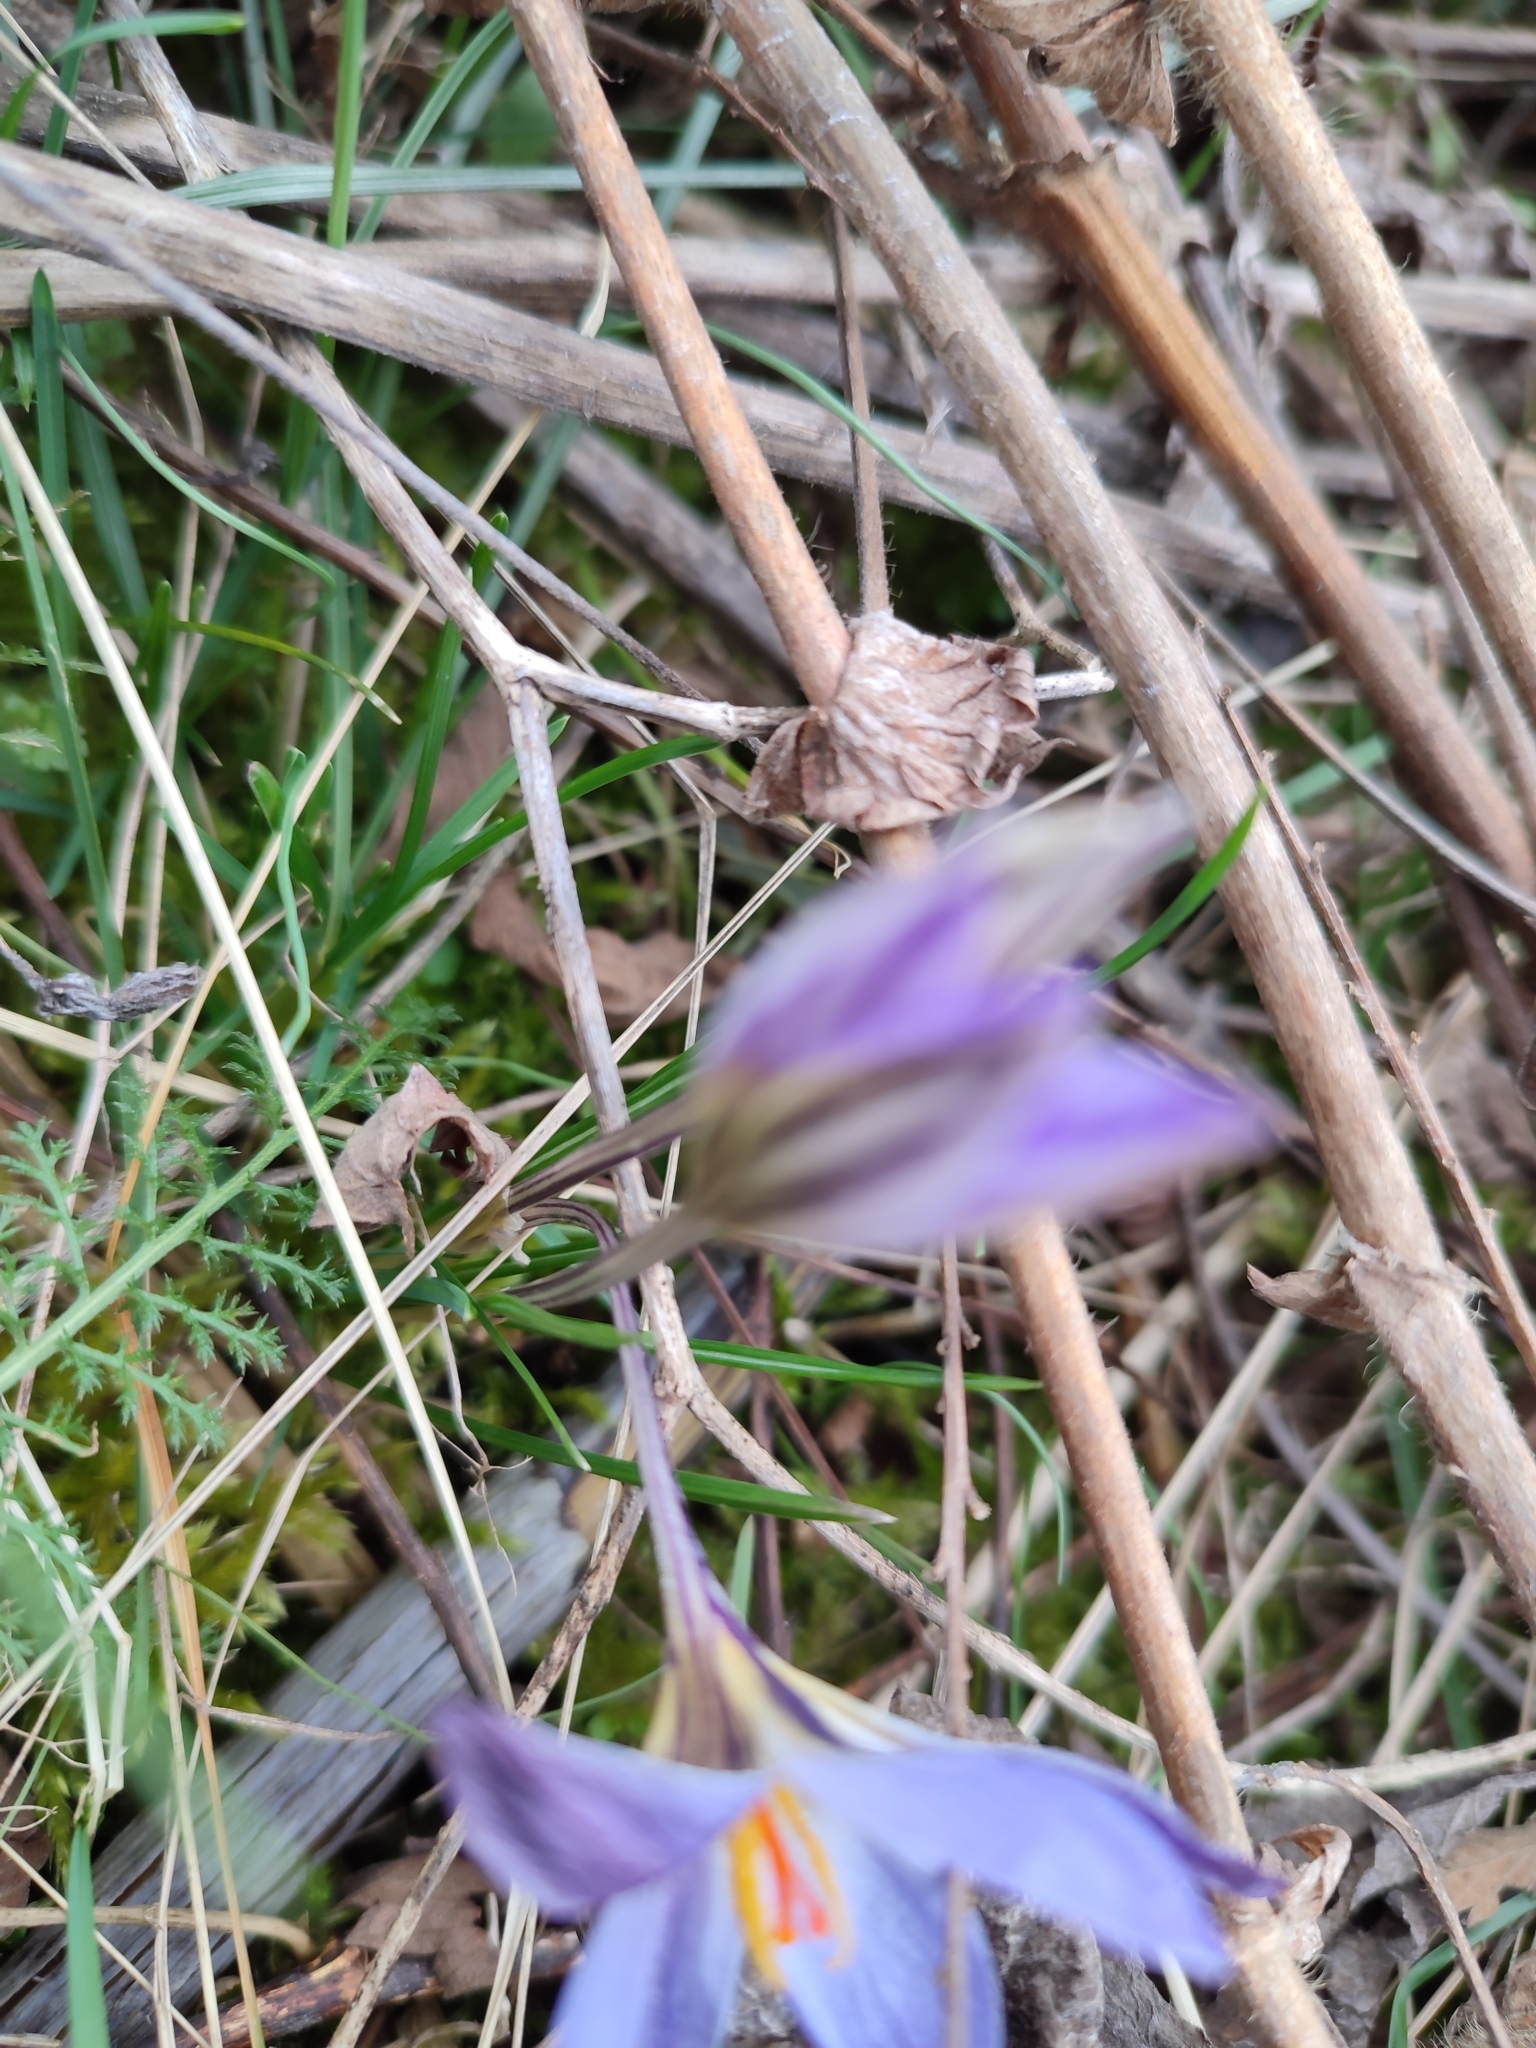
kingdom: Plantae
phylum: Tracheophyta
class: Liliopsida
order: Asparagales
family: Iridaceae
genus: Crocus
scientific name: Crocus reticulatus
